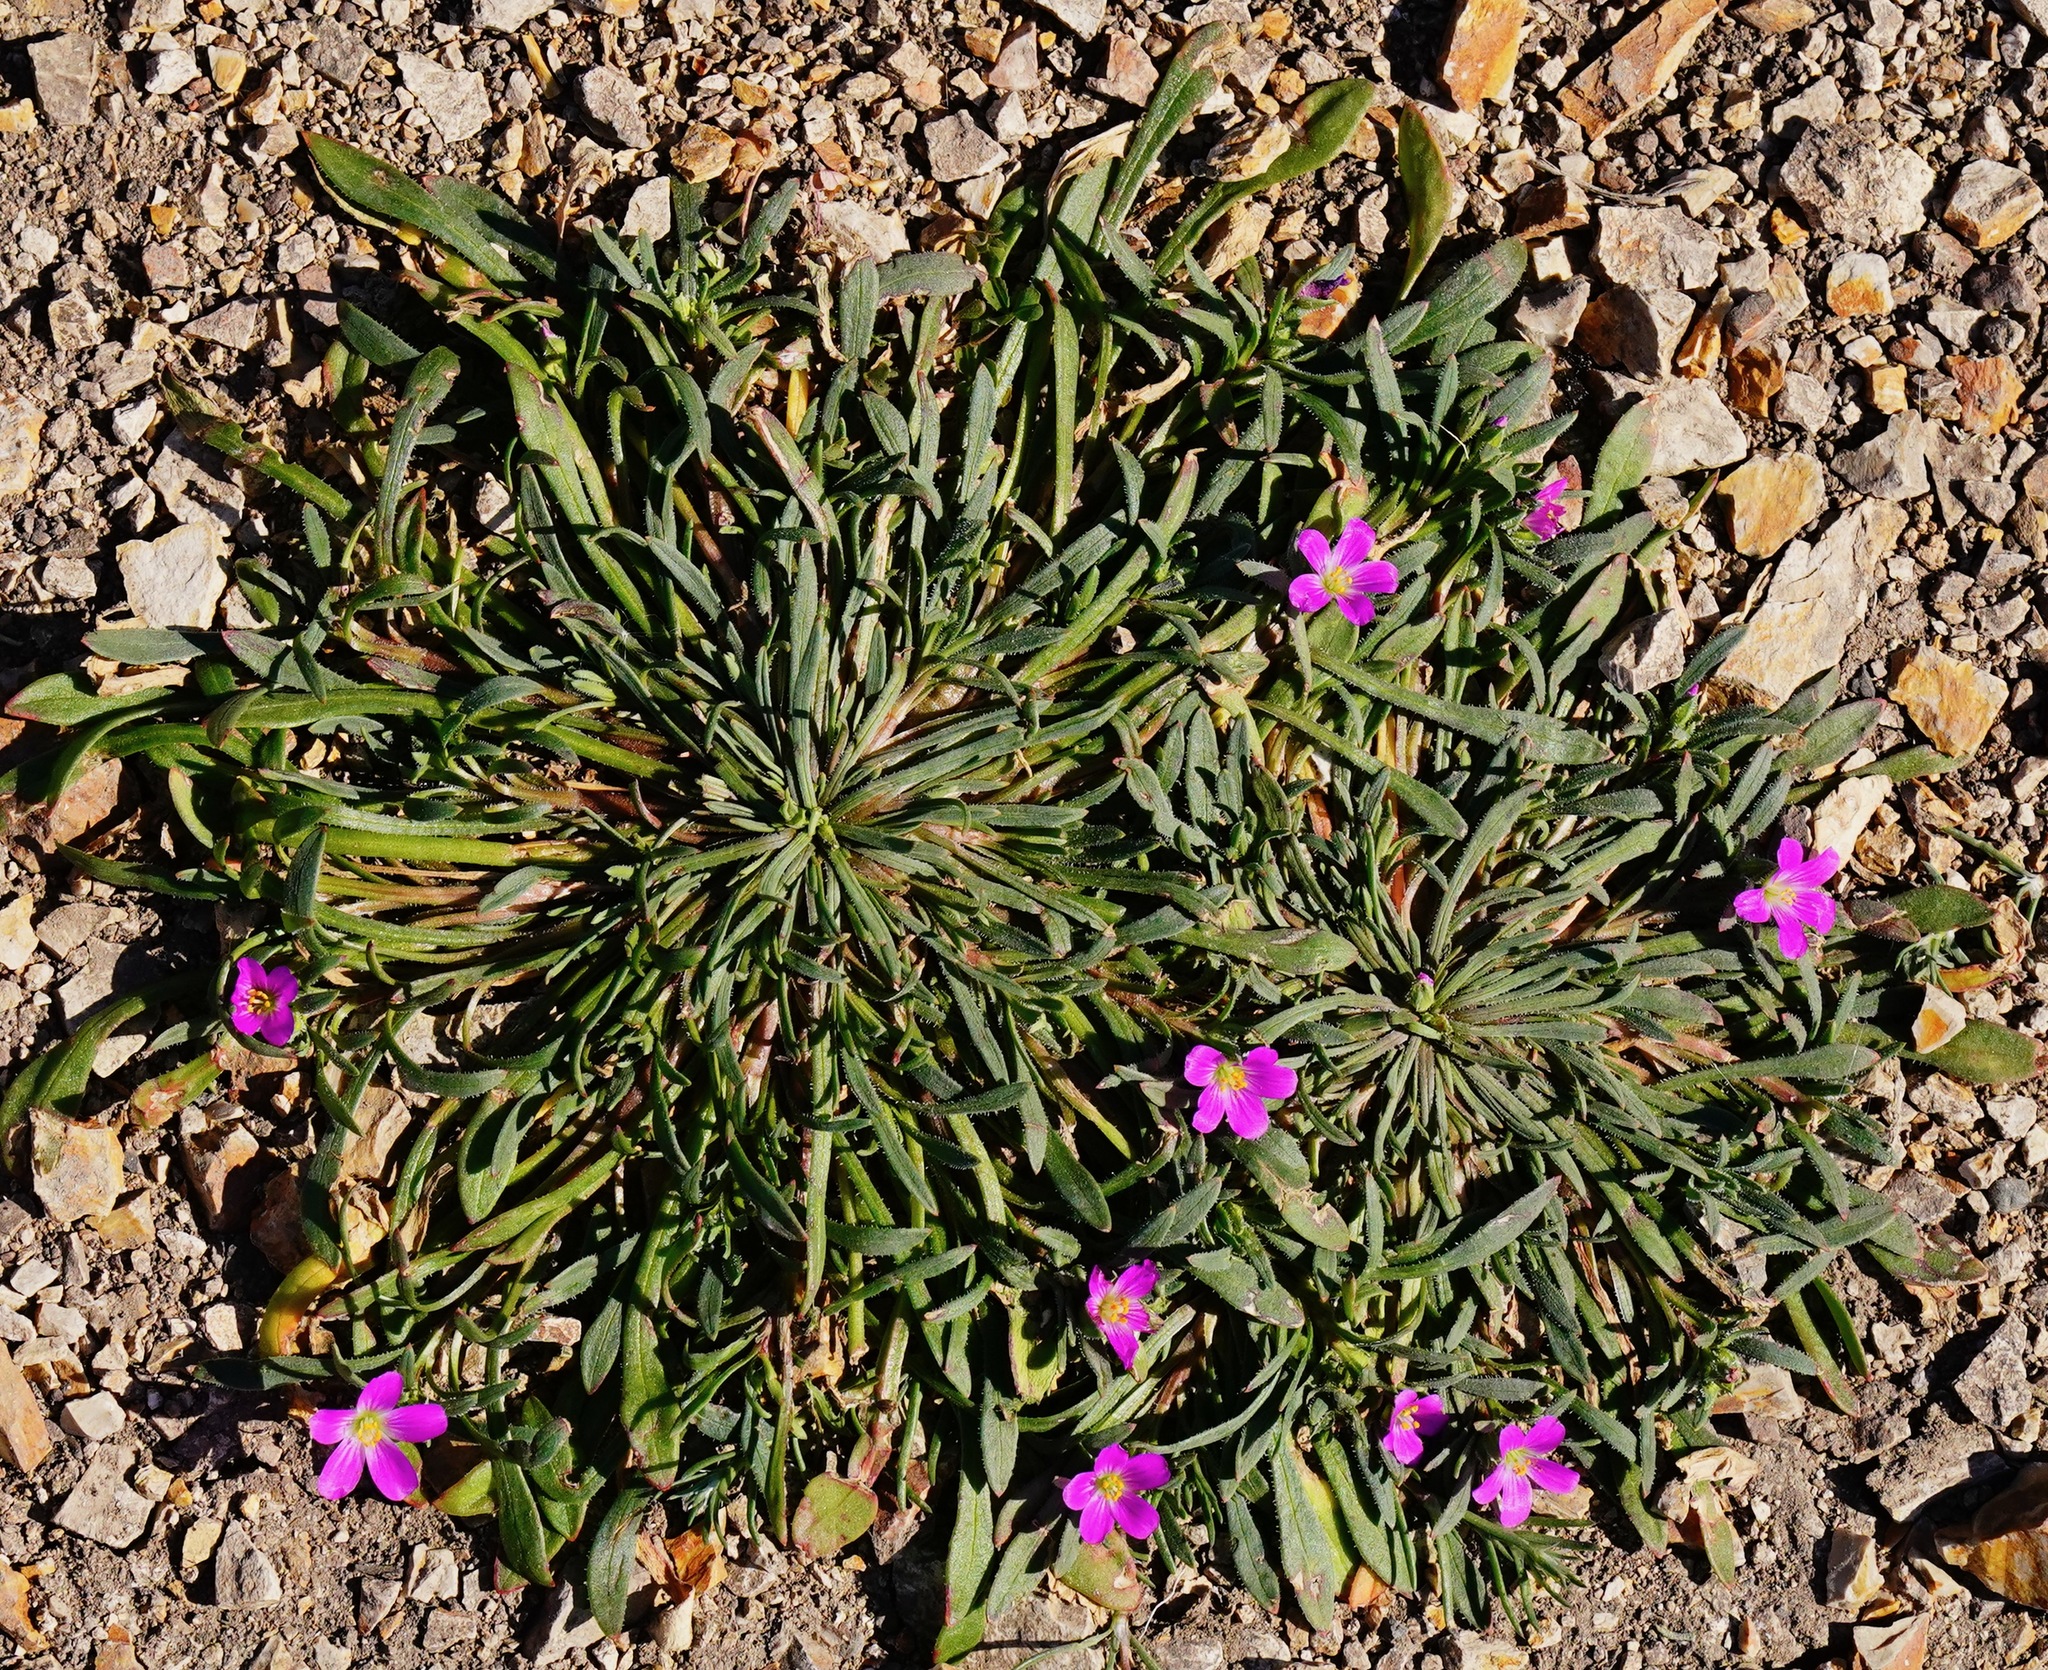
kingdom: Plantae
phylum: Tracheophyta
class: Magnoliopsida
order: Caryophyllales
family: Montiaceae
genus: Calandrinia
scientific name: Calandrinia menziesii
